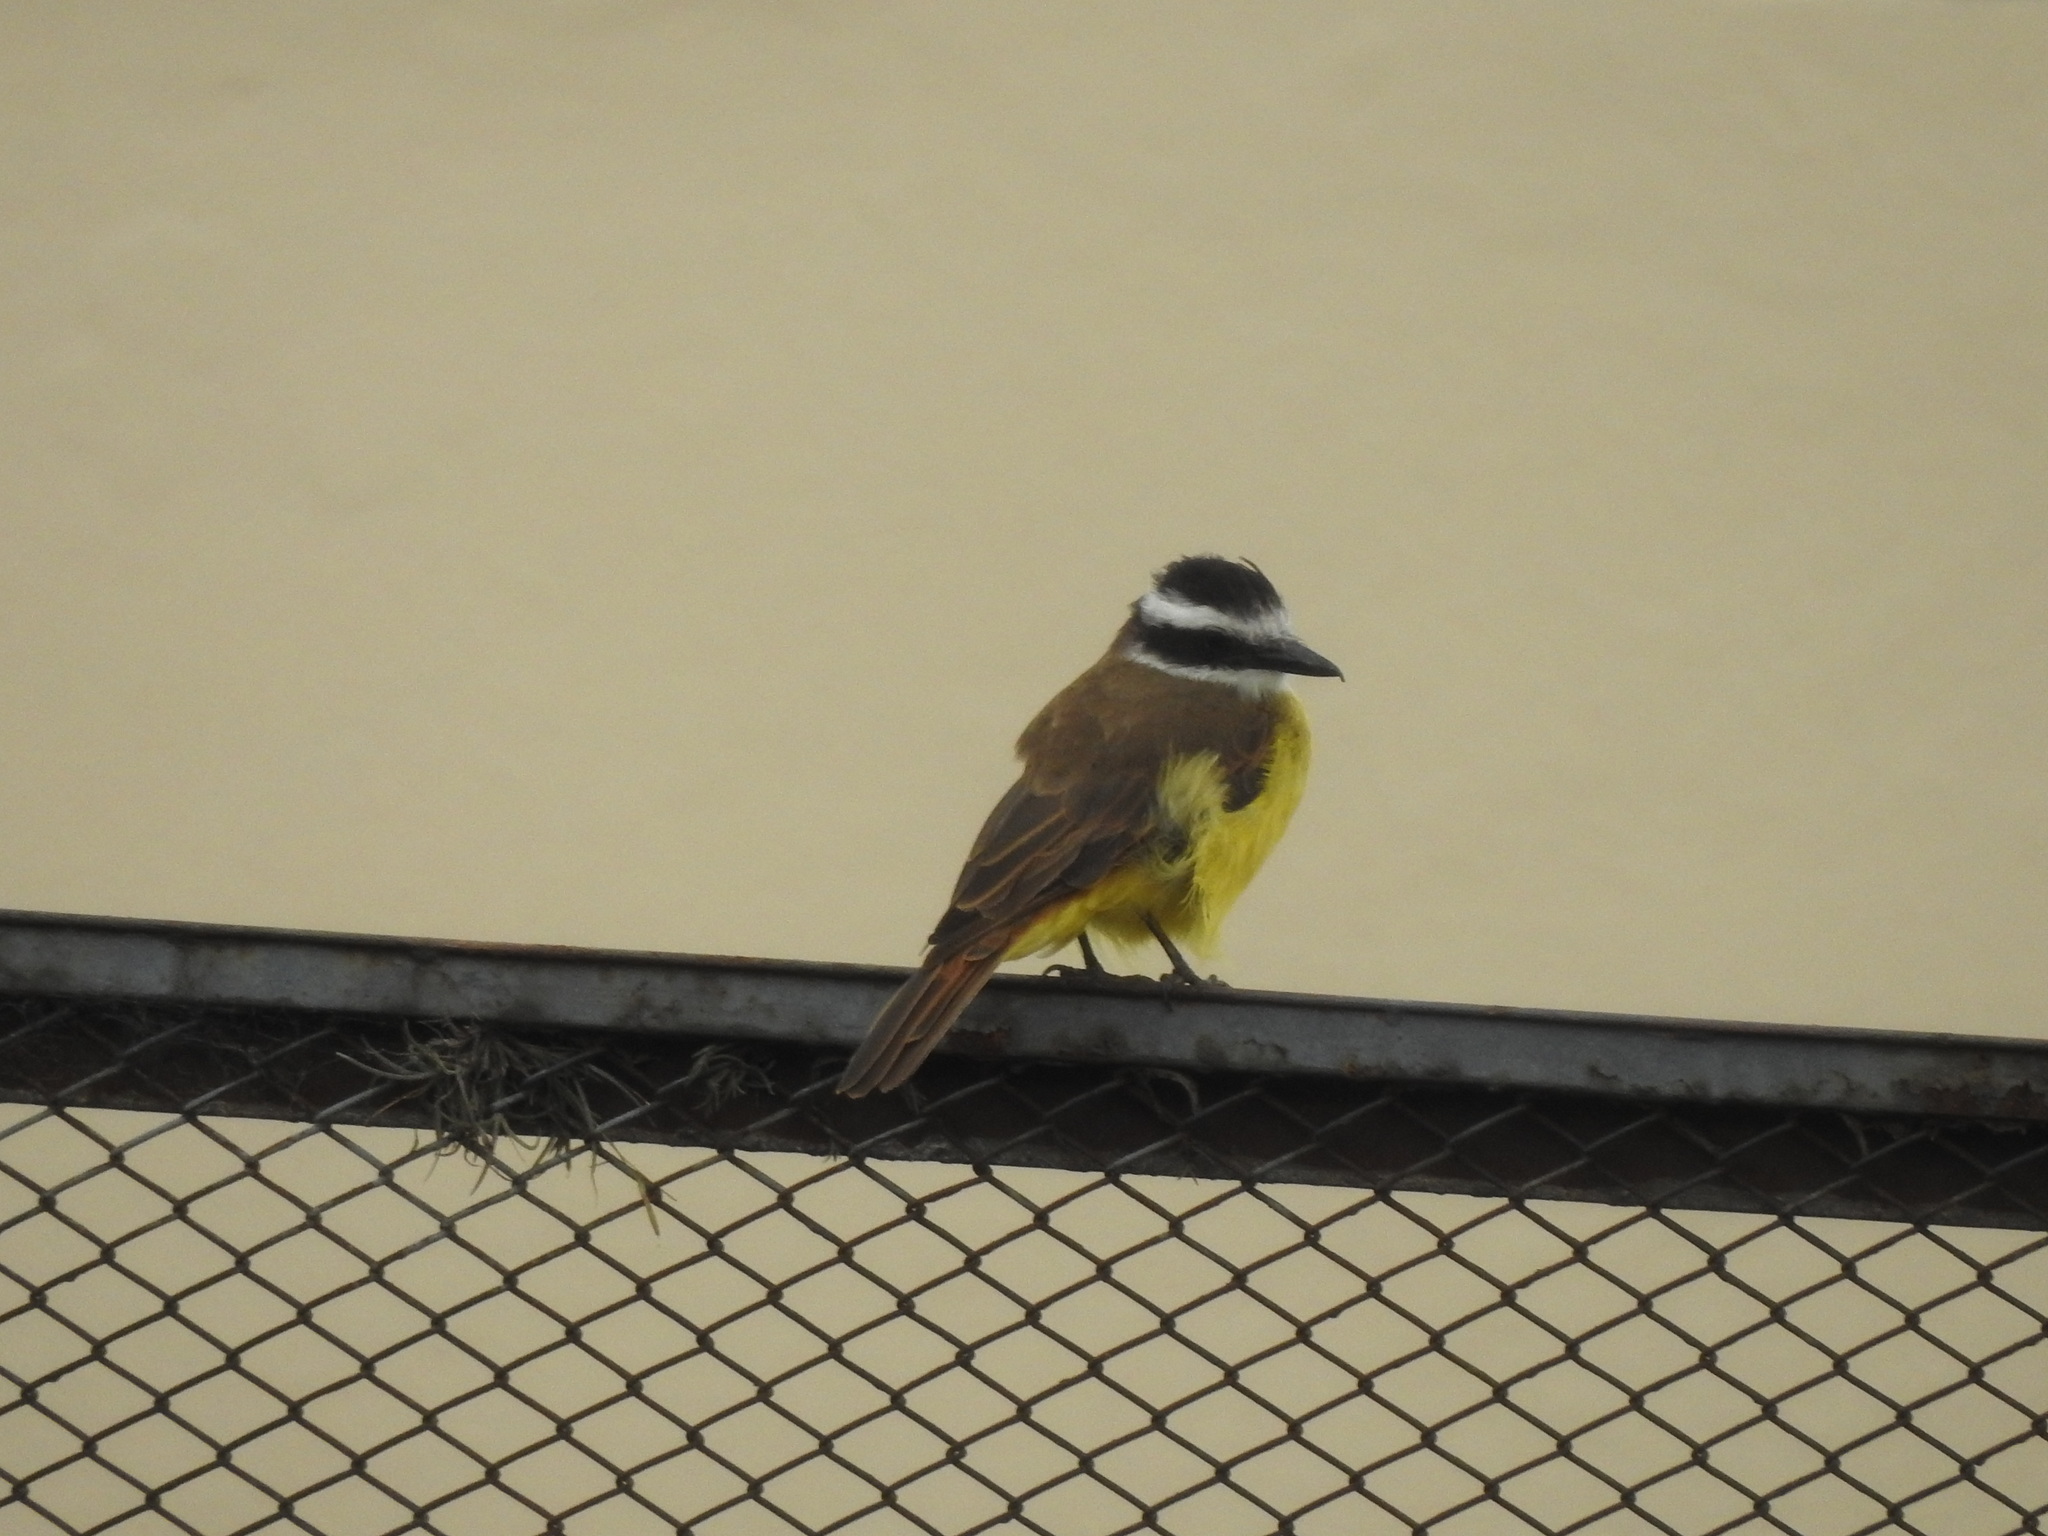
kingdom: Animalia
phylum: Chordata
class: Aves
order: Passeriformes
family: Tyrannidae
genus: Pitangus
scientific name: Pitangus sulphuratus
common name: Great kiskadee
